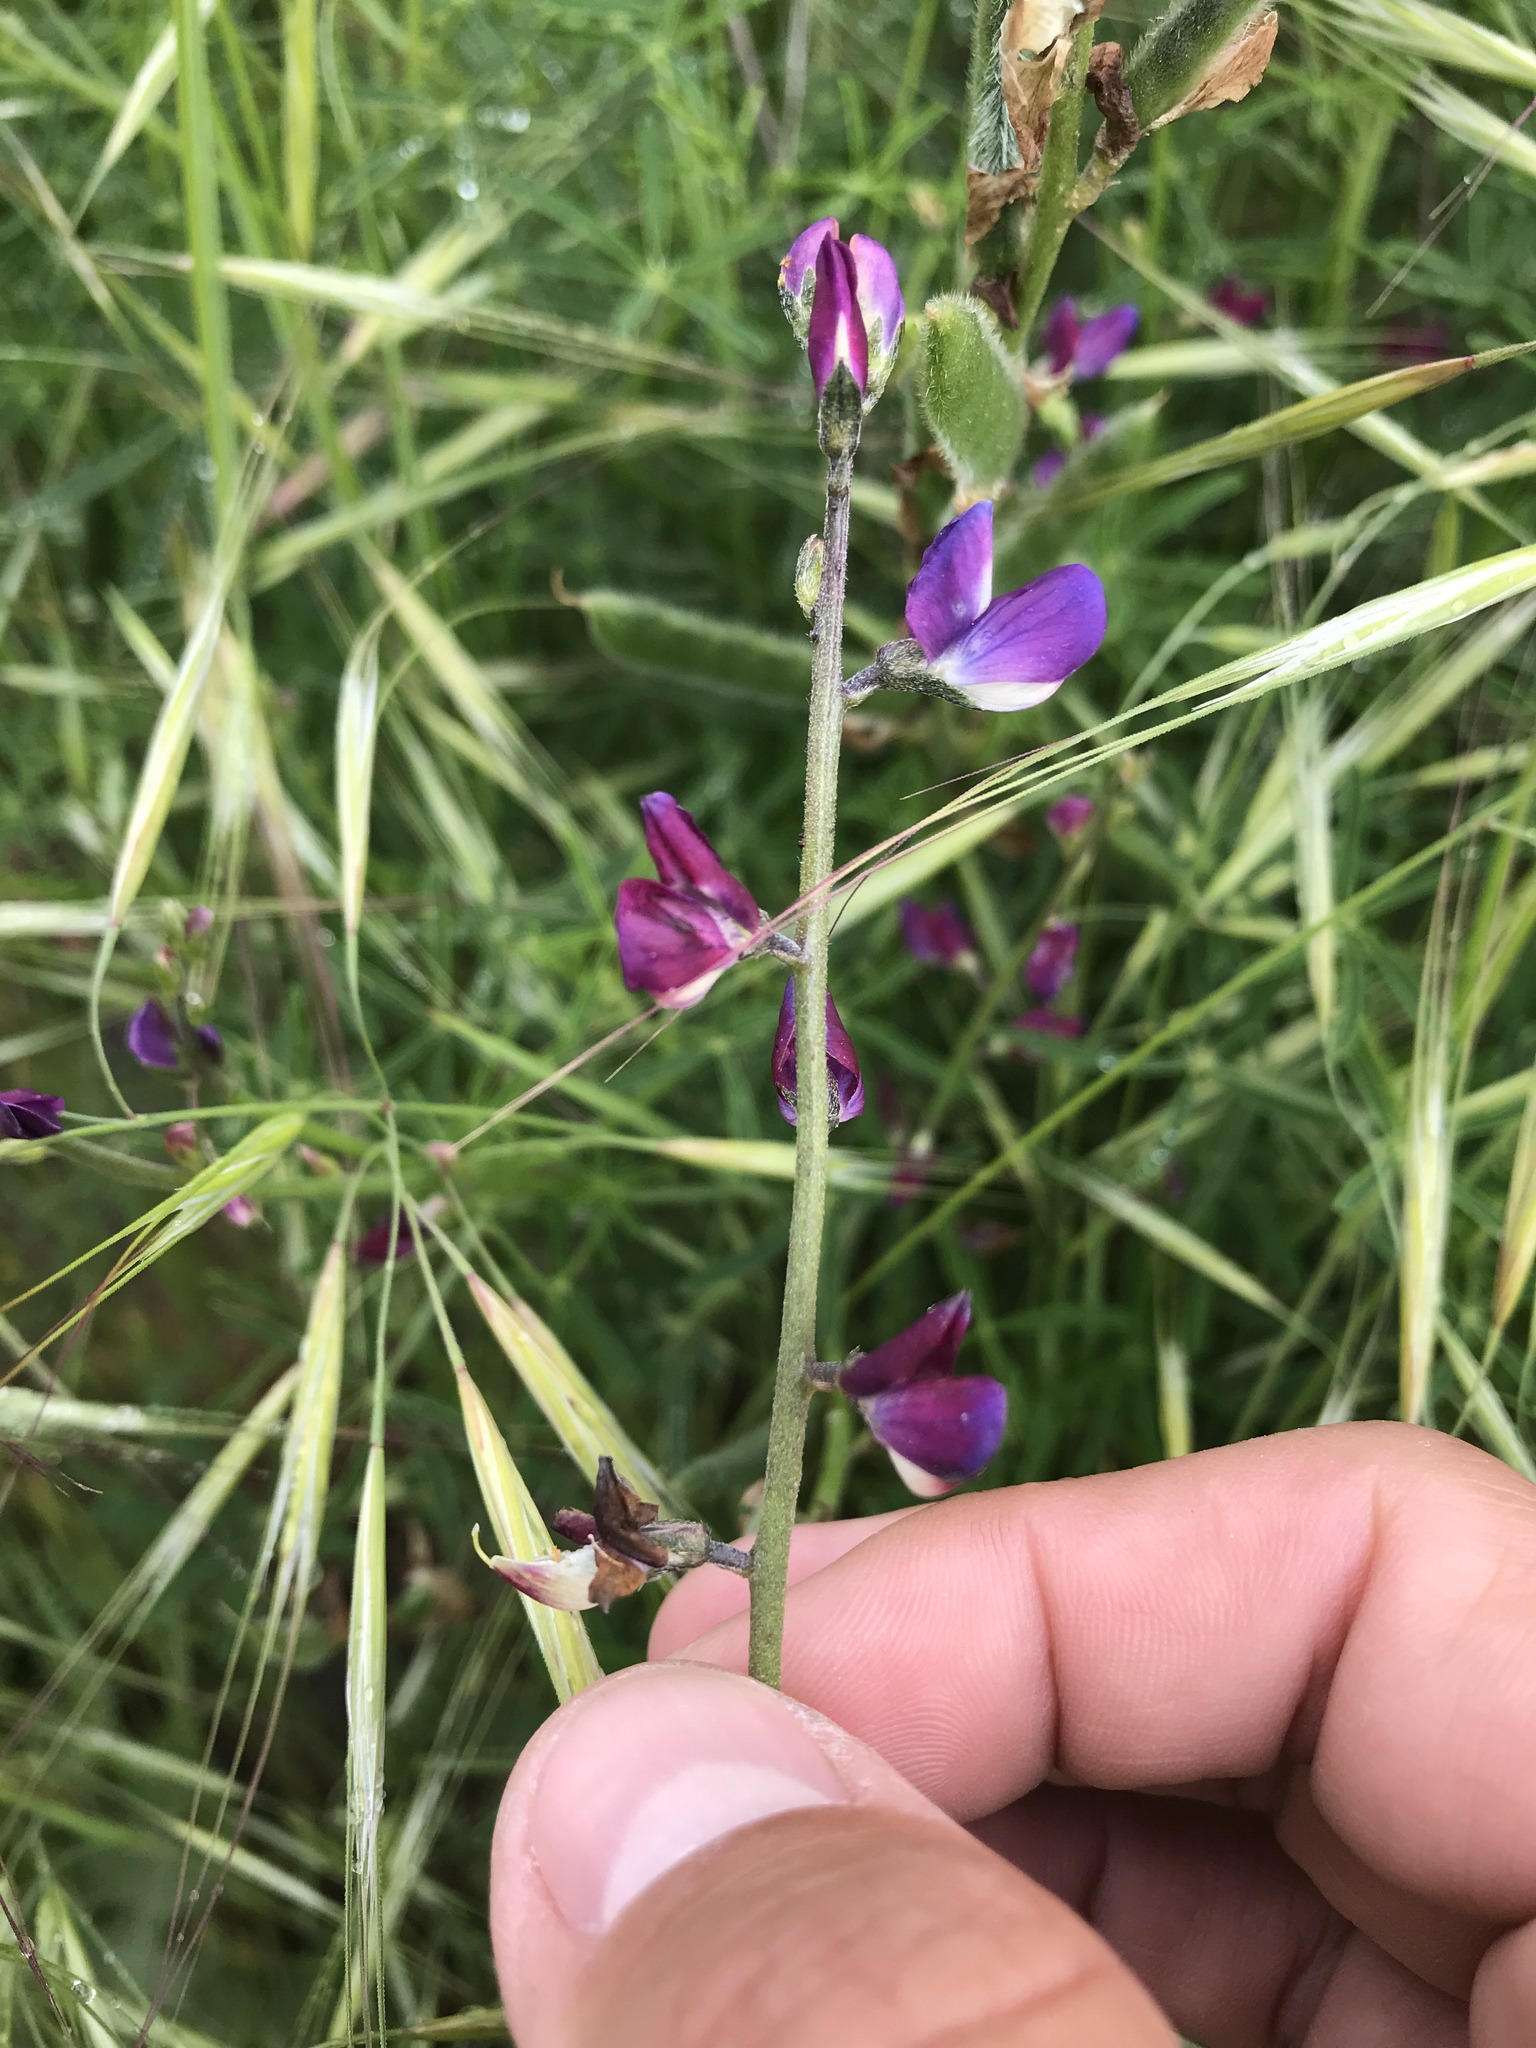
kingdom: Plantae
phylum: Tracheophyta
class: Magnoliopsida
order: Fabales
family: Fabaceae
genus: Lupinus
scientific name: Lupinus truncatus
